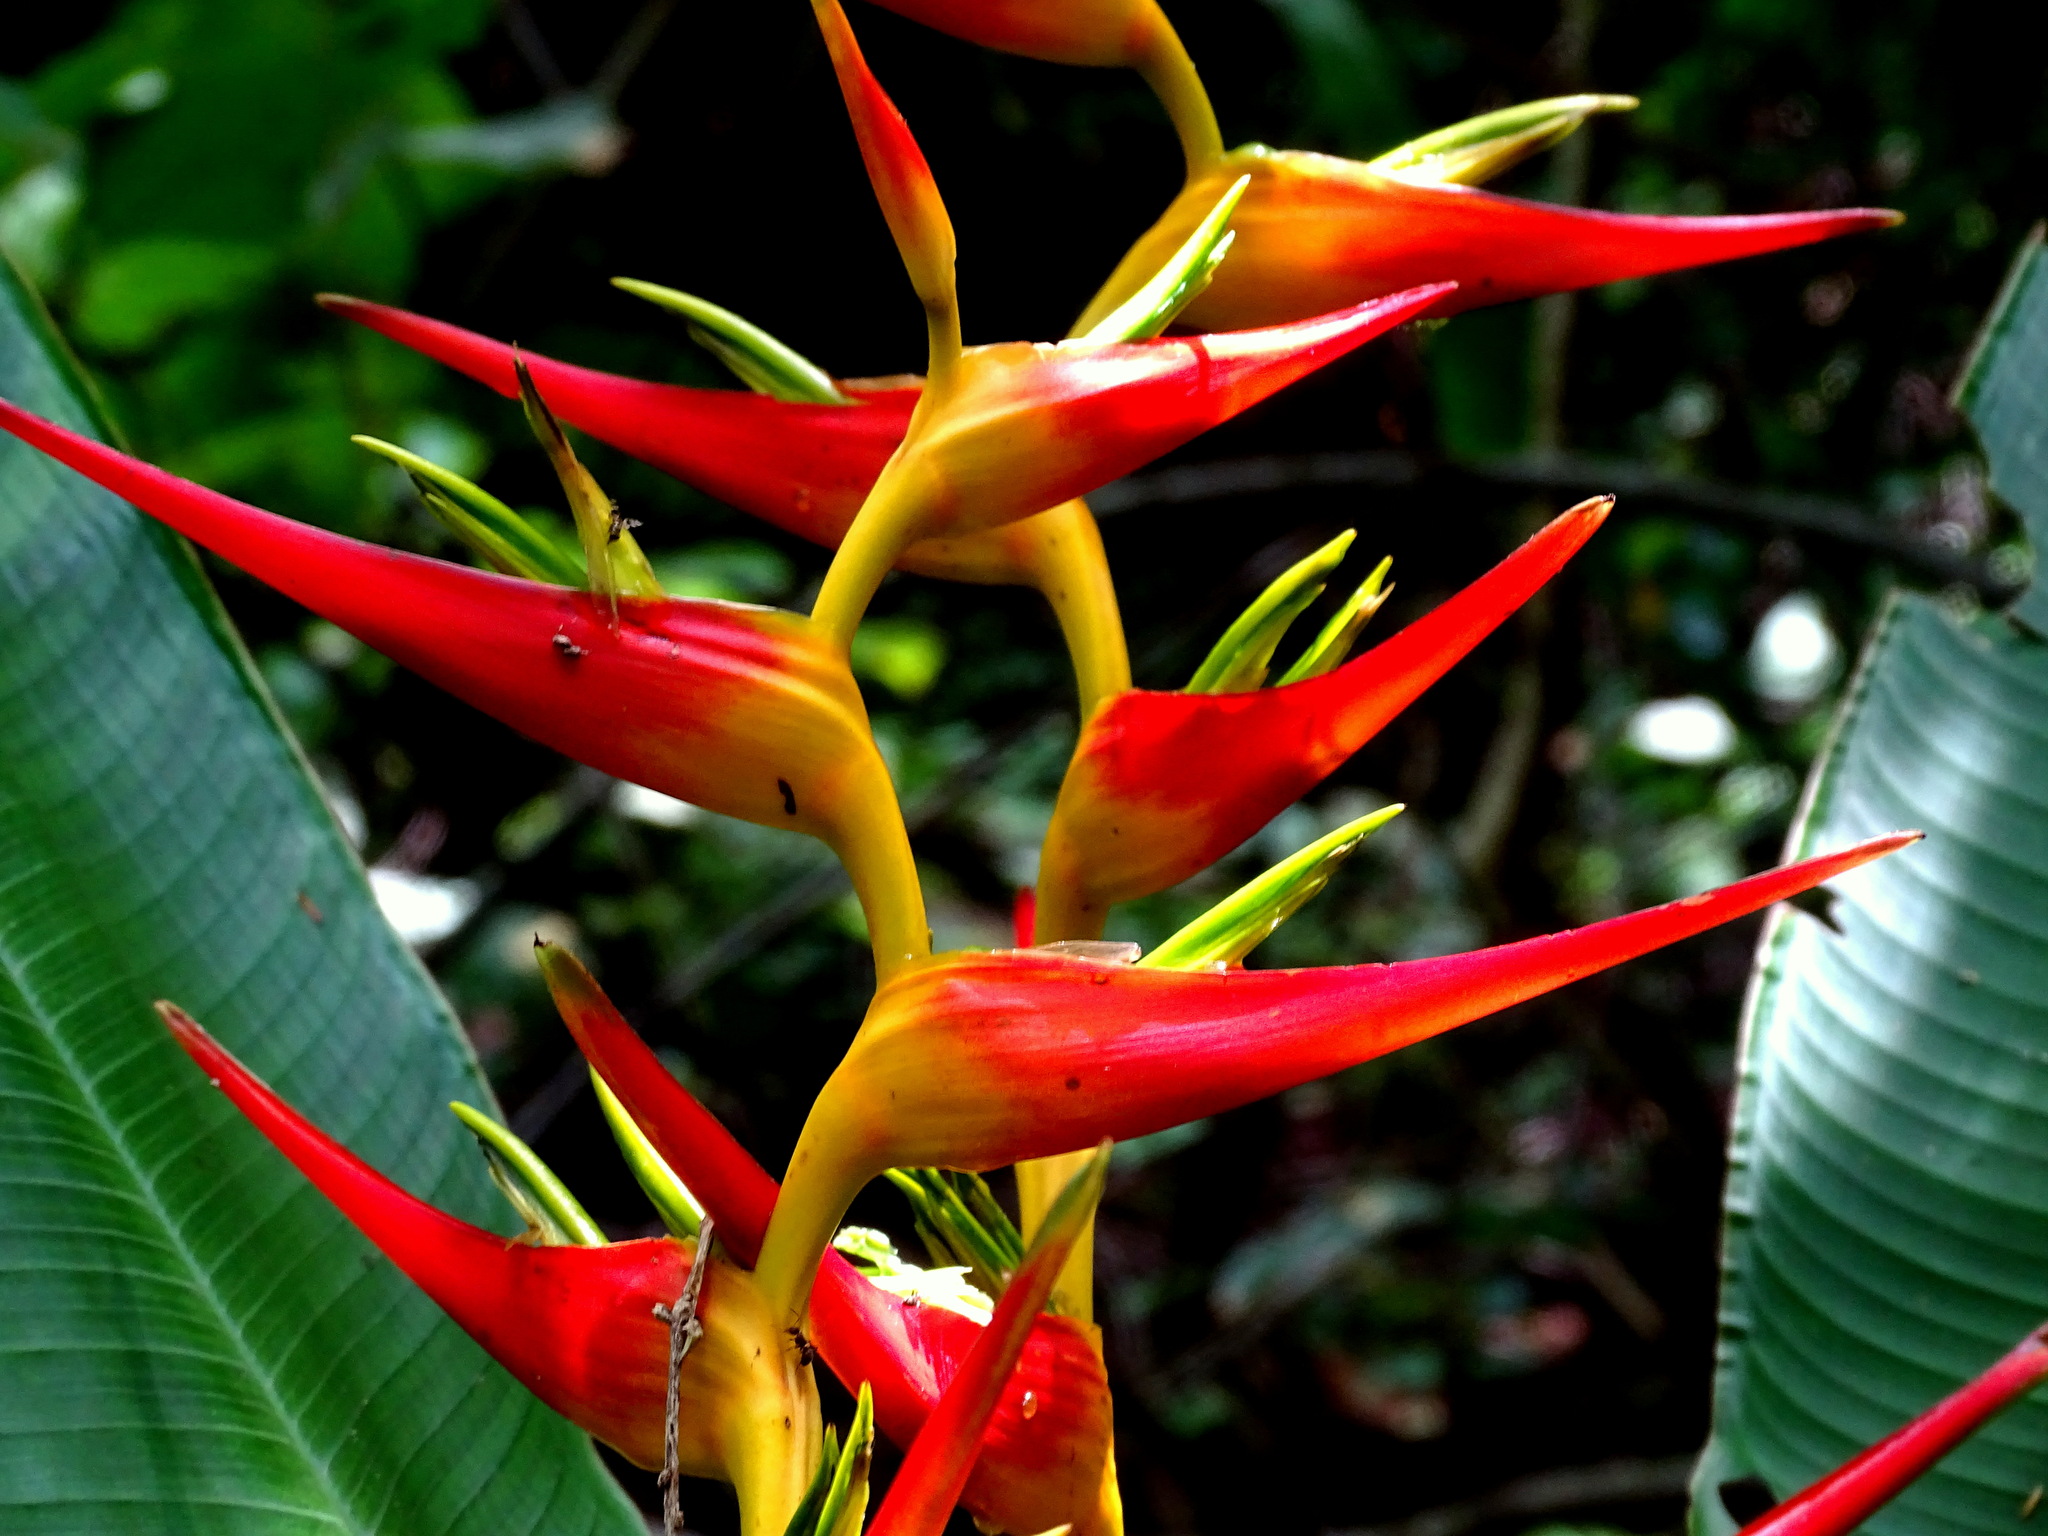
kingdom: Plantae
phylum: Tracheophyta
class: Liliopsida
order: Zingiberales
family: Heliconiaceae
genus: Heliconia
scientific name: Heliconia latispatha
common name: Expanded lobsterclaw
